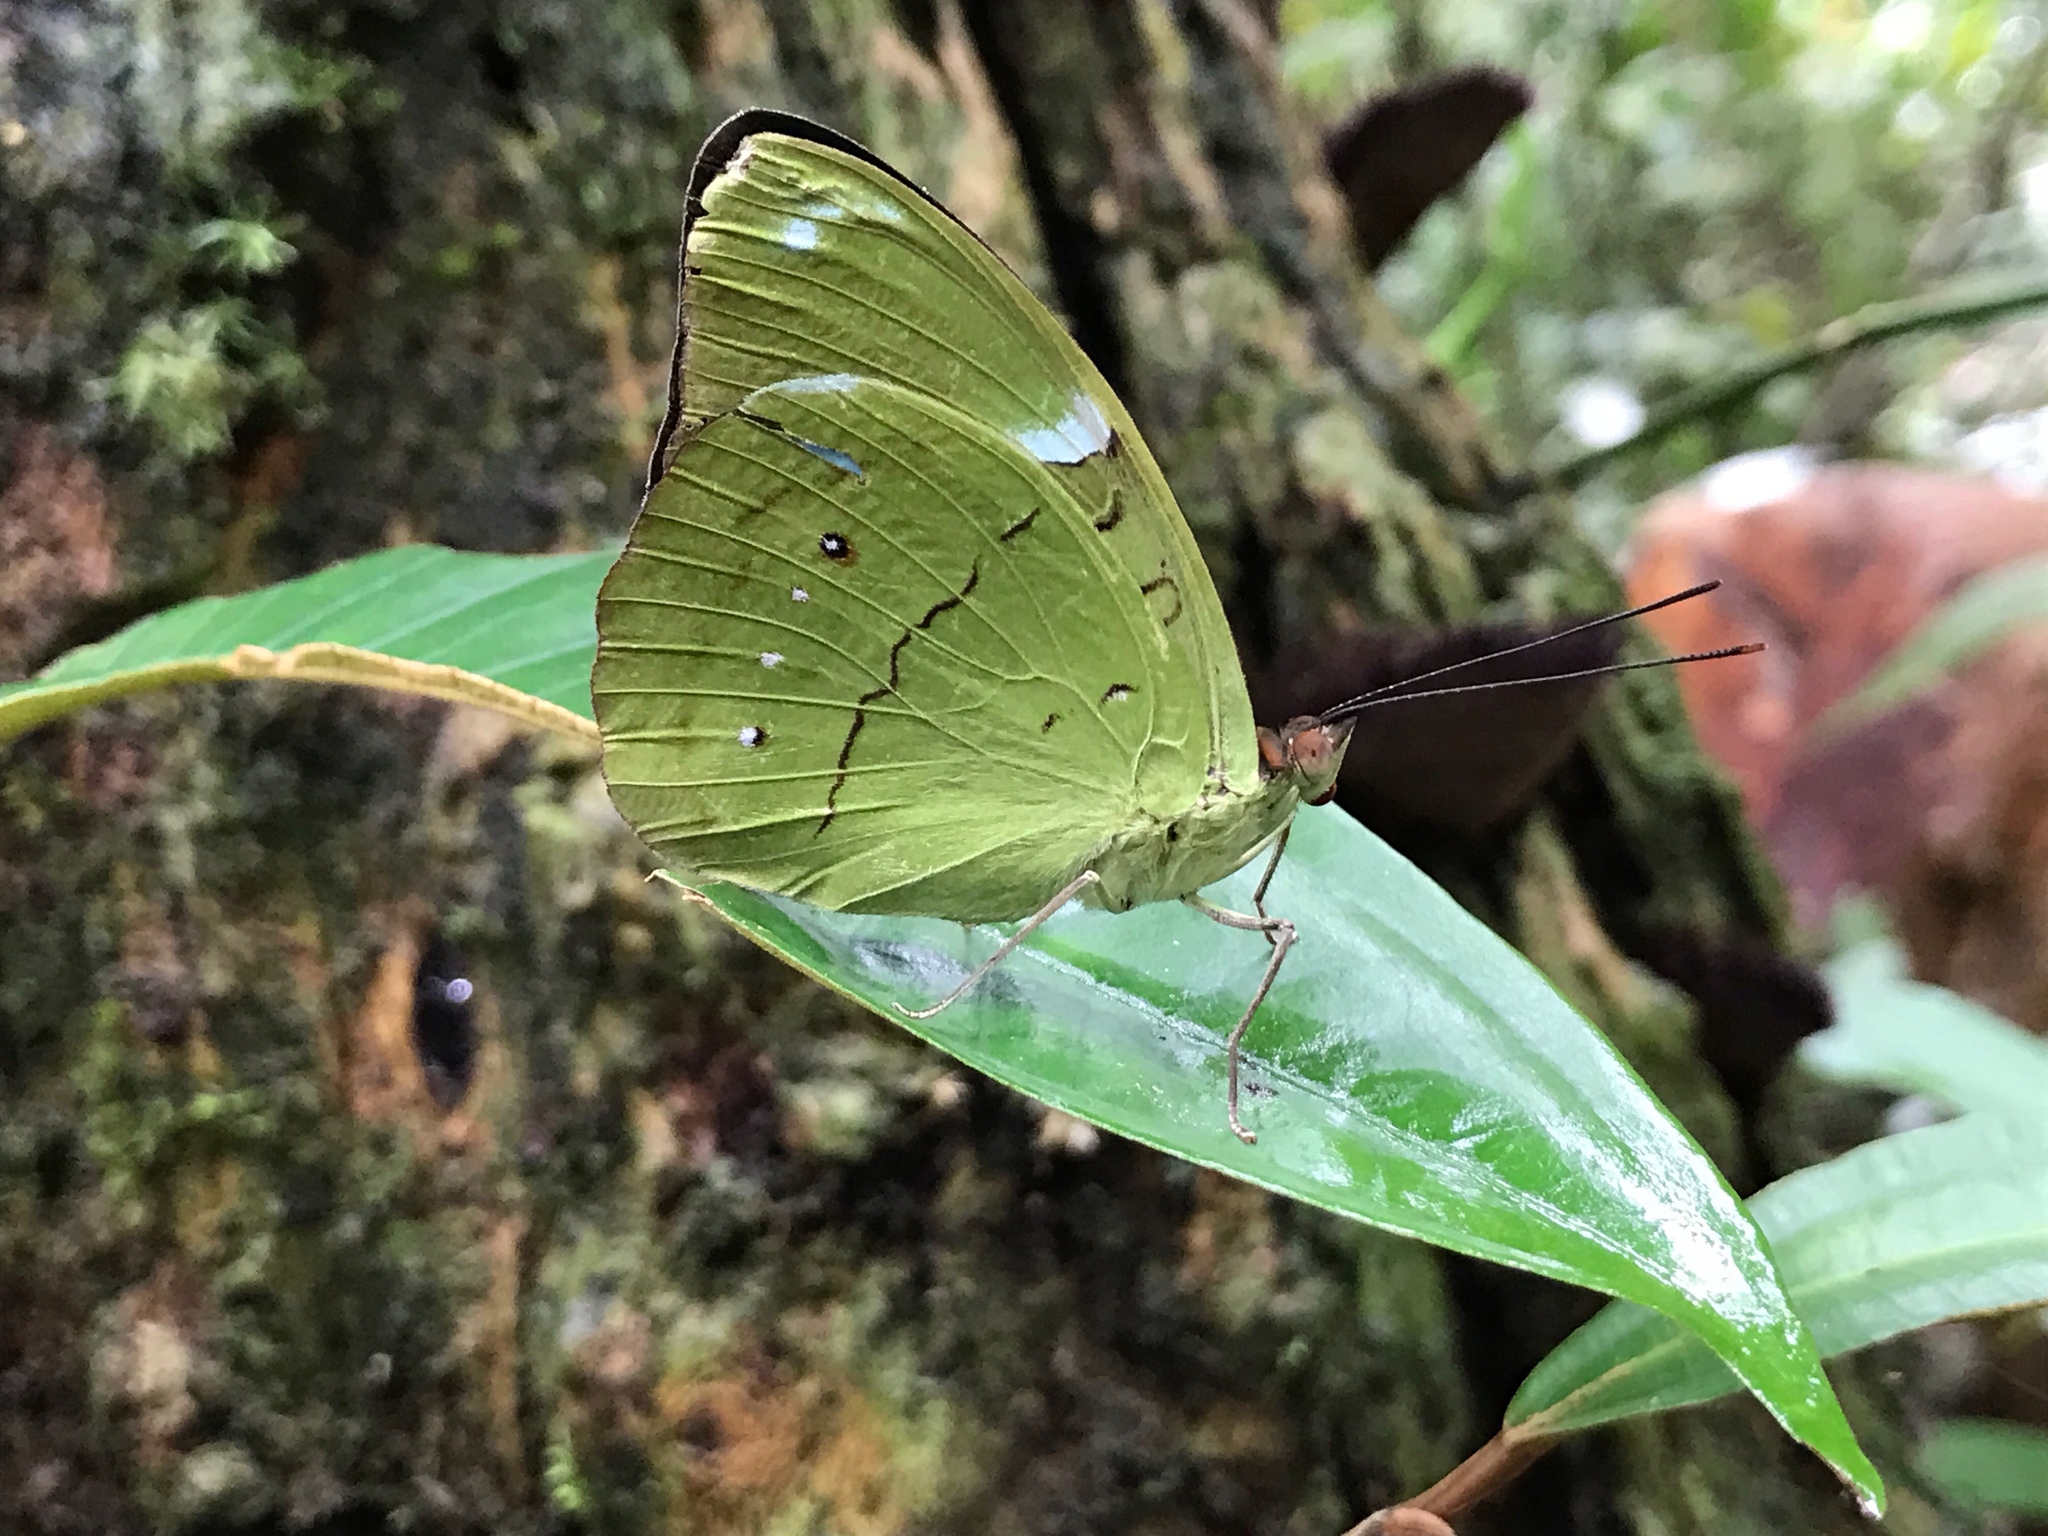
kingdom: Animalia
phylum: Arthropoda
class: Insecta
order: Lepidoptera
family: Nymphalidae
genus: Nessaea
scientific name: Nessaea aglaura
